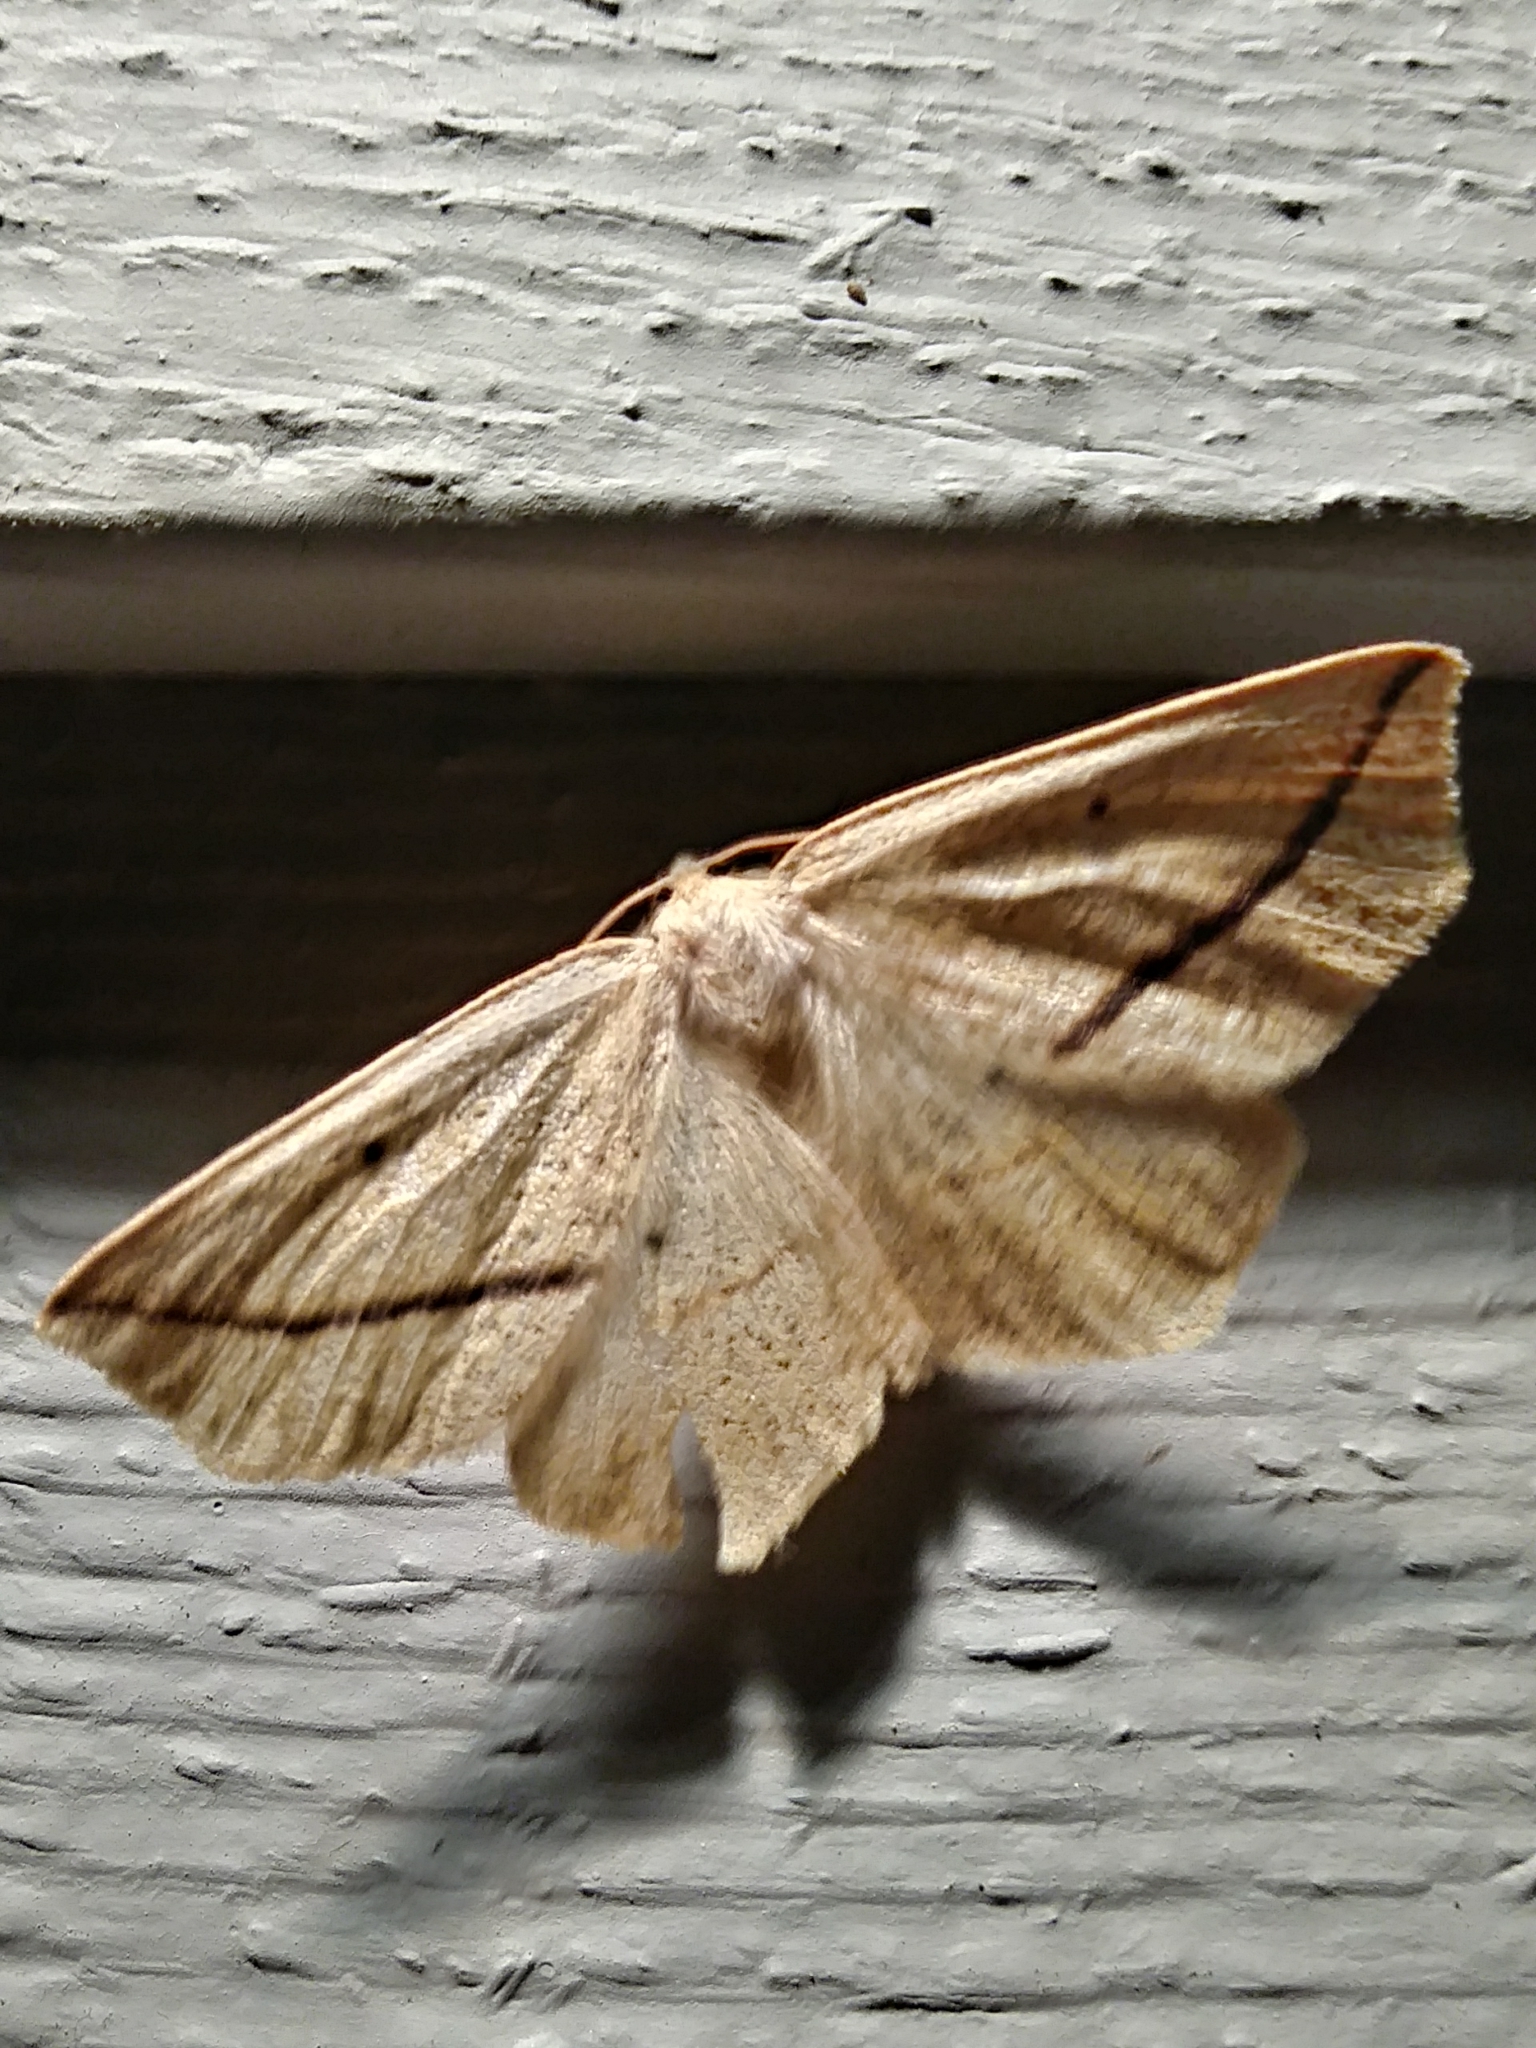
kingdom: Animalia
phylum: Arthropoda
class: Insecta
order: Lepidoptera
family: Geometridae
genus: Tetracis
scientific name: Tetracis crocallata
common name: Yellow slant-line
